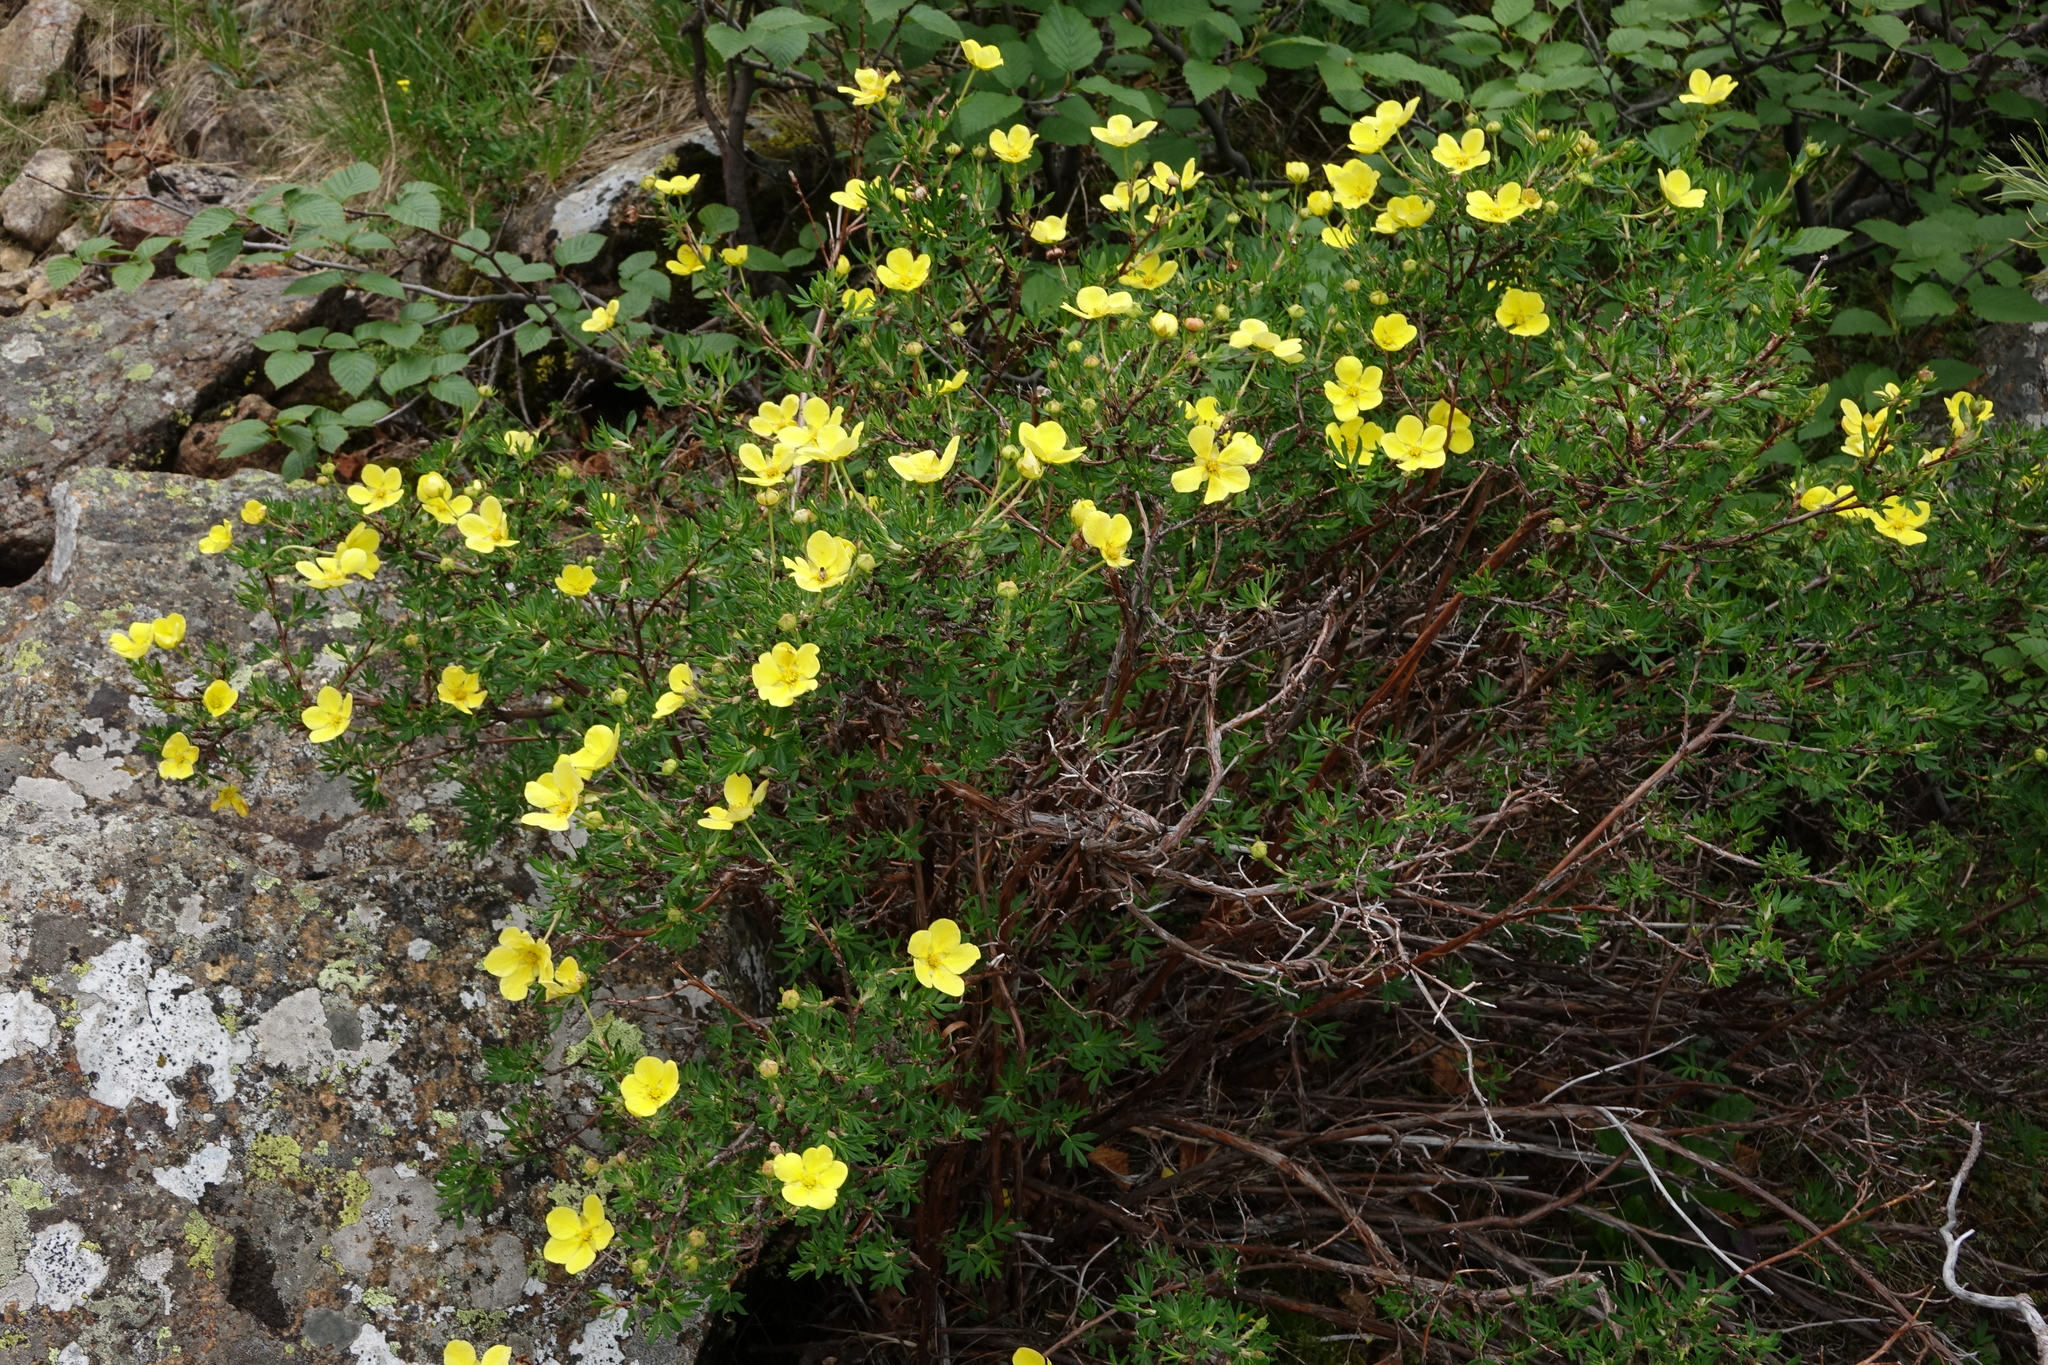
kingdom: Plantae
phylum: Tracheophyta
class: Magnoliopsida
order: Rosales
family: Rosaceae
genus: Dasiphora
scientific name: Dasiphora fruticosa
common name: Shrubby cinquefoil
